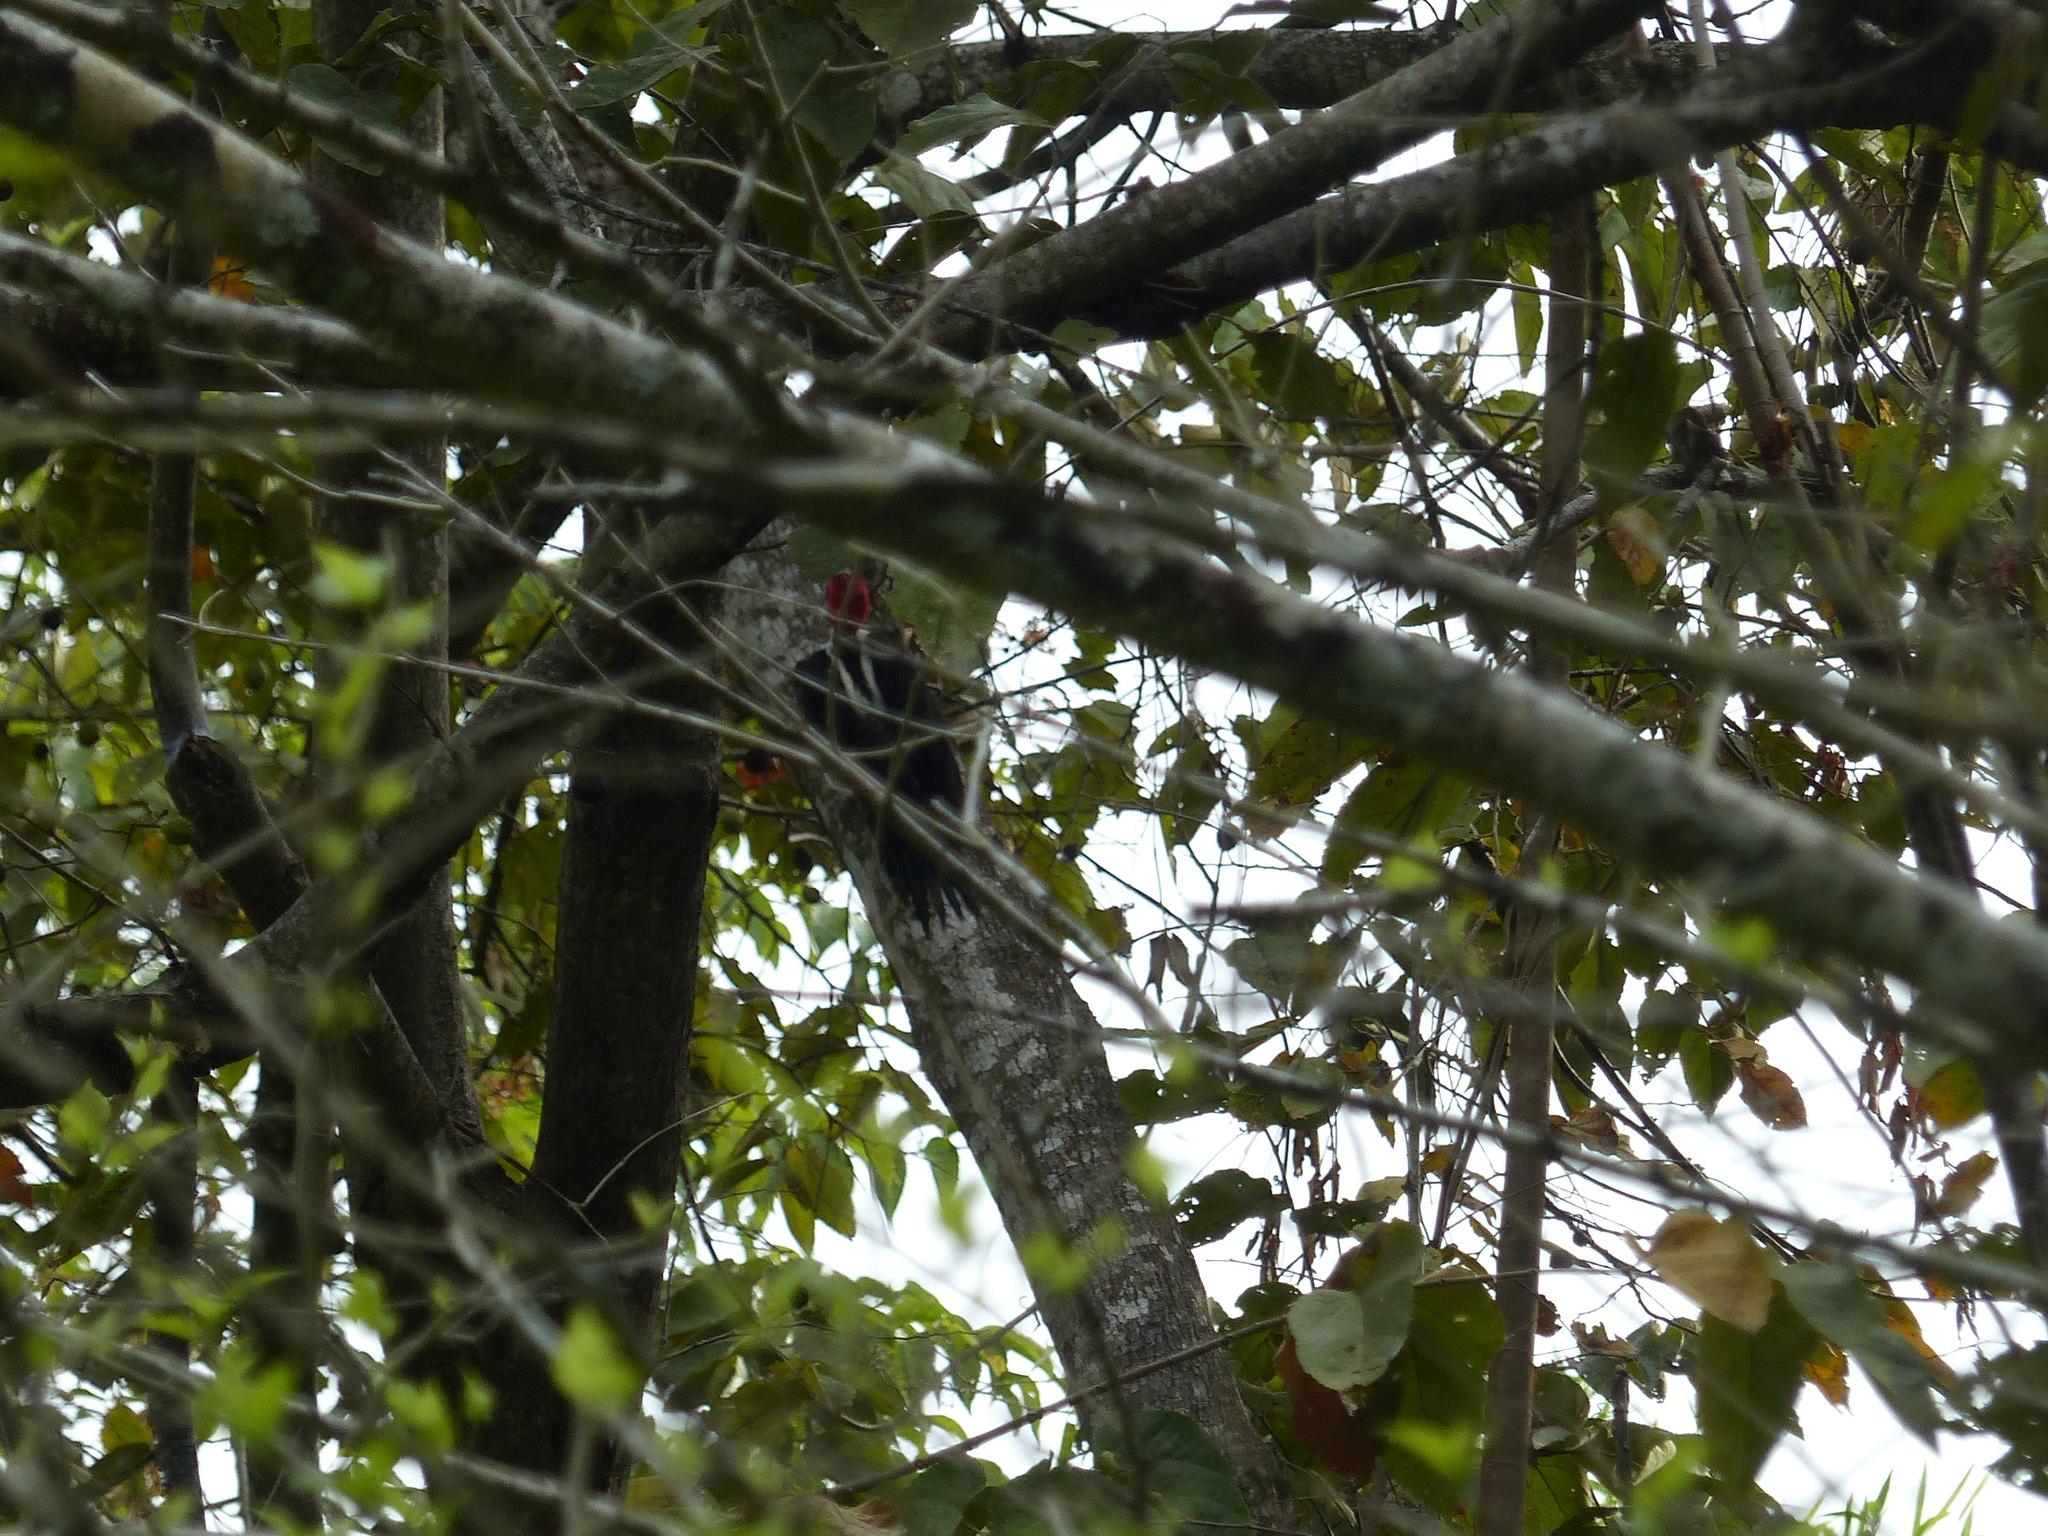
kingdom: Animalia
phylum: Chordata
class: Aves
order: Piciformes
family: Picidae
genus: Campephilus
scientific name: Campephilus melanoleucos
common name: Crimson-crested woodpecker
